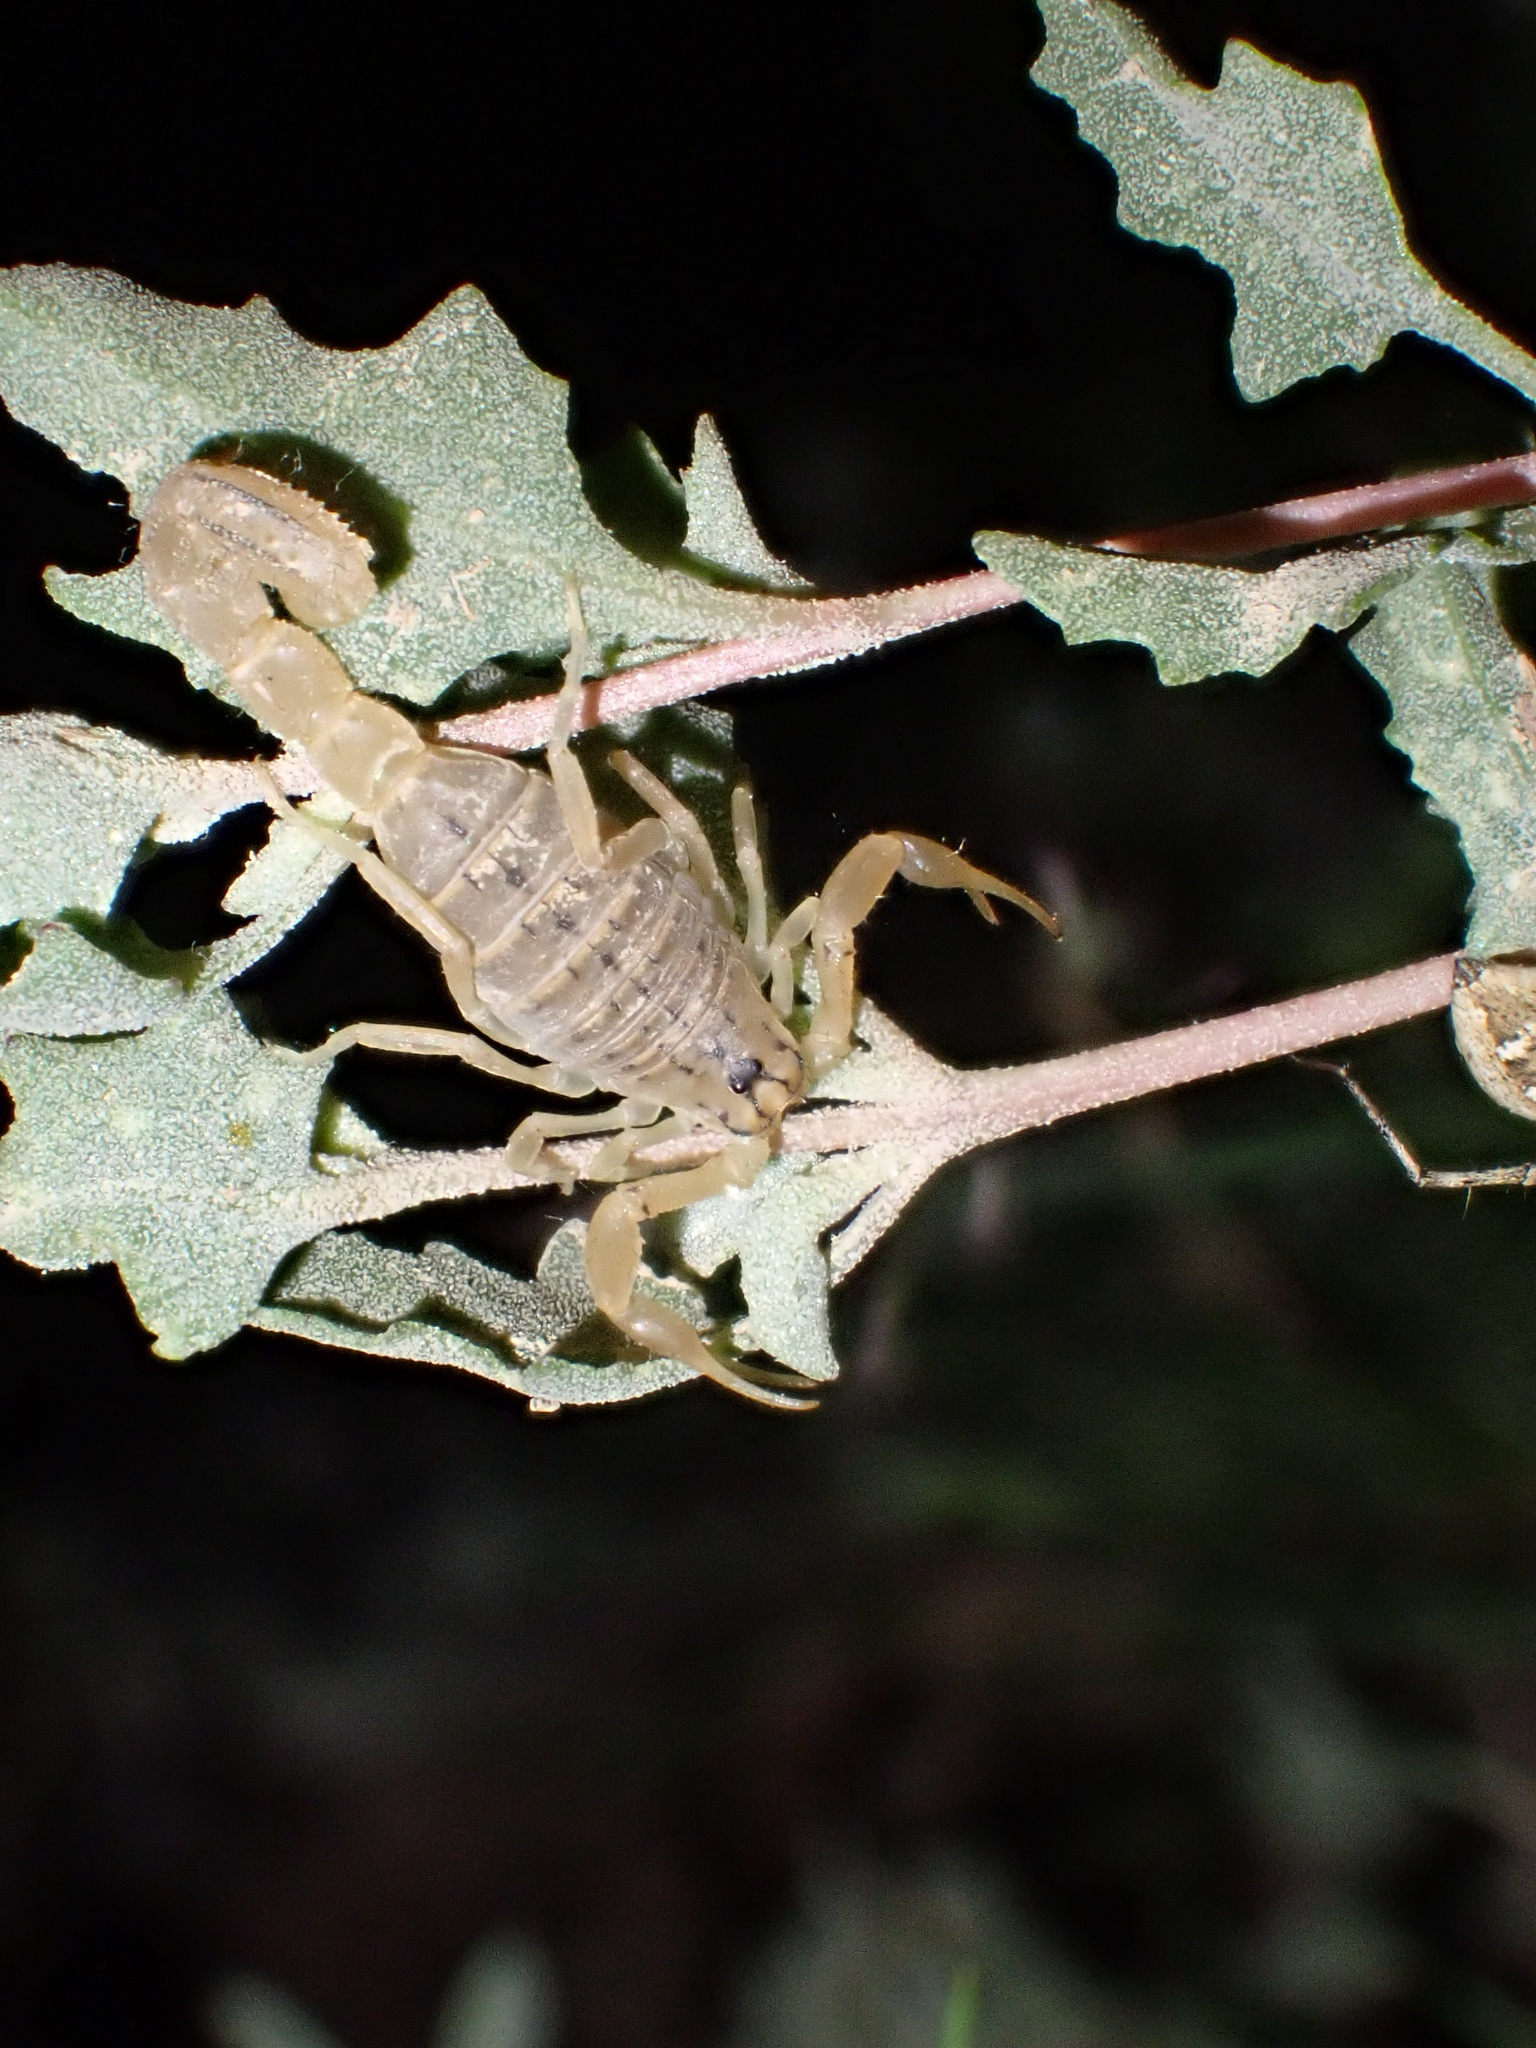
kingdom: Animalia
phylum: Arthropoda
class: Arachnida
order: Scorpiones
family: Buthidae
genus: Mesobuthus
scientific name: Mesobuthus crucittii
